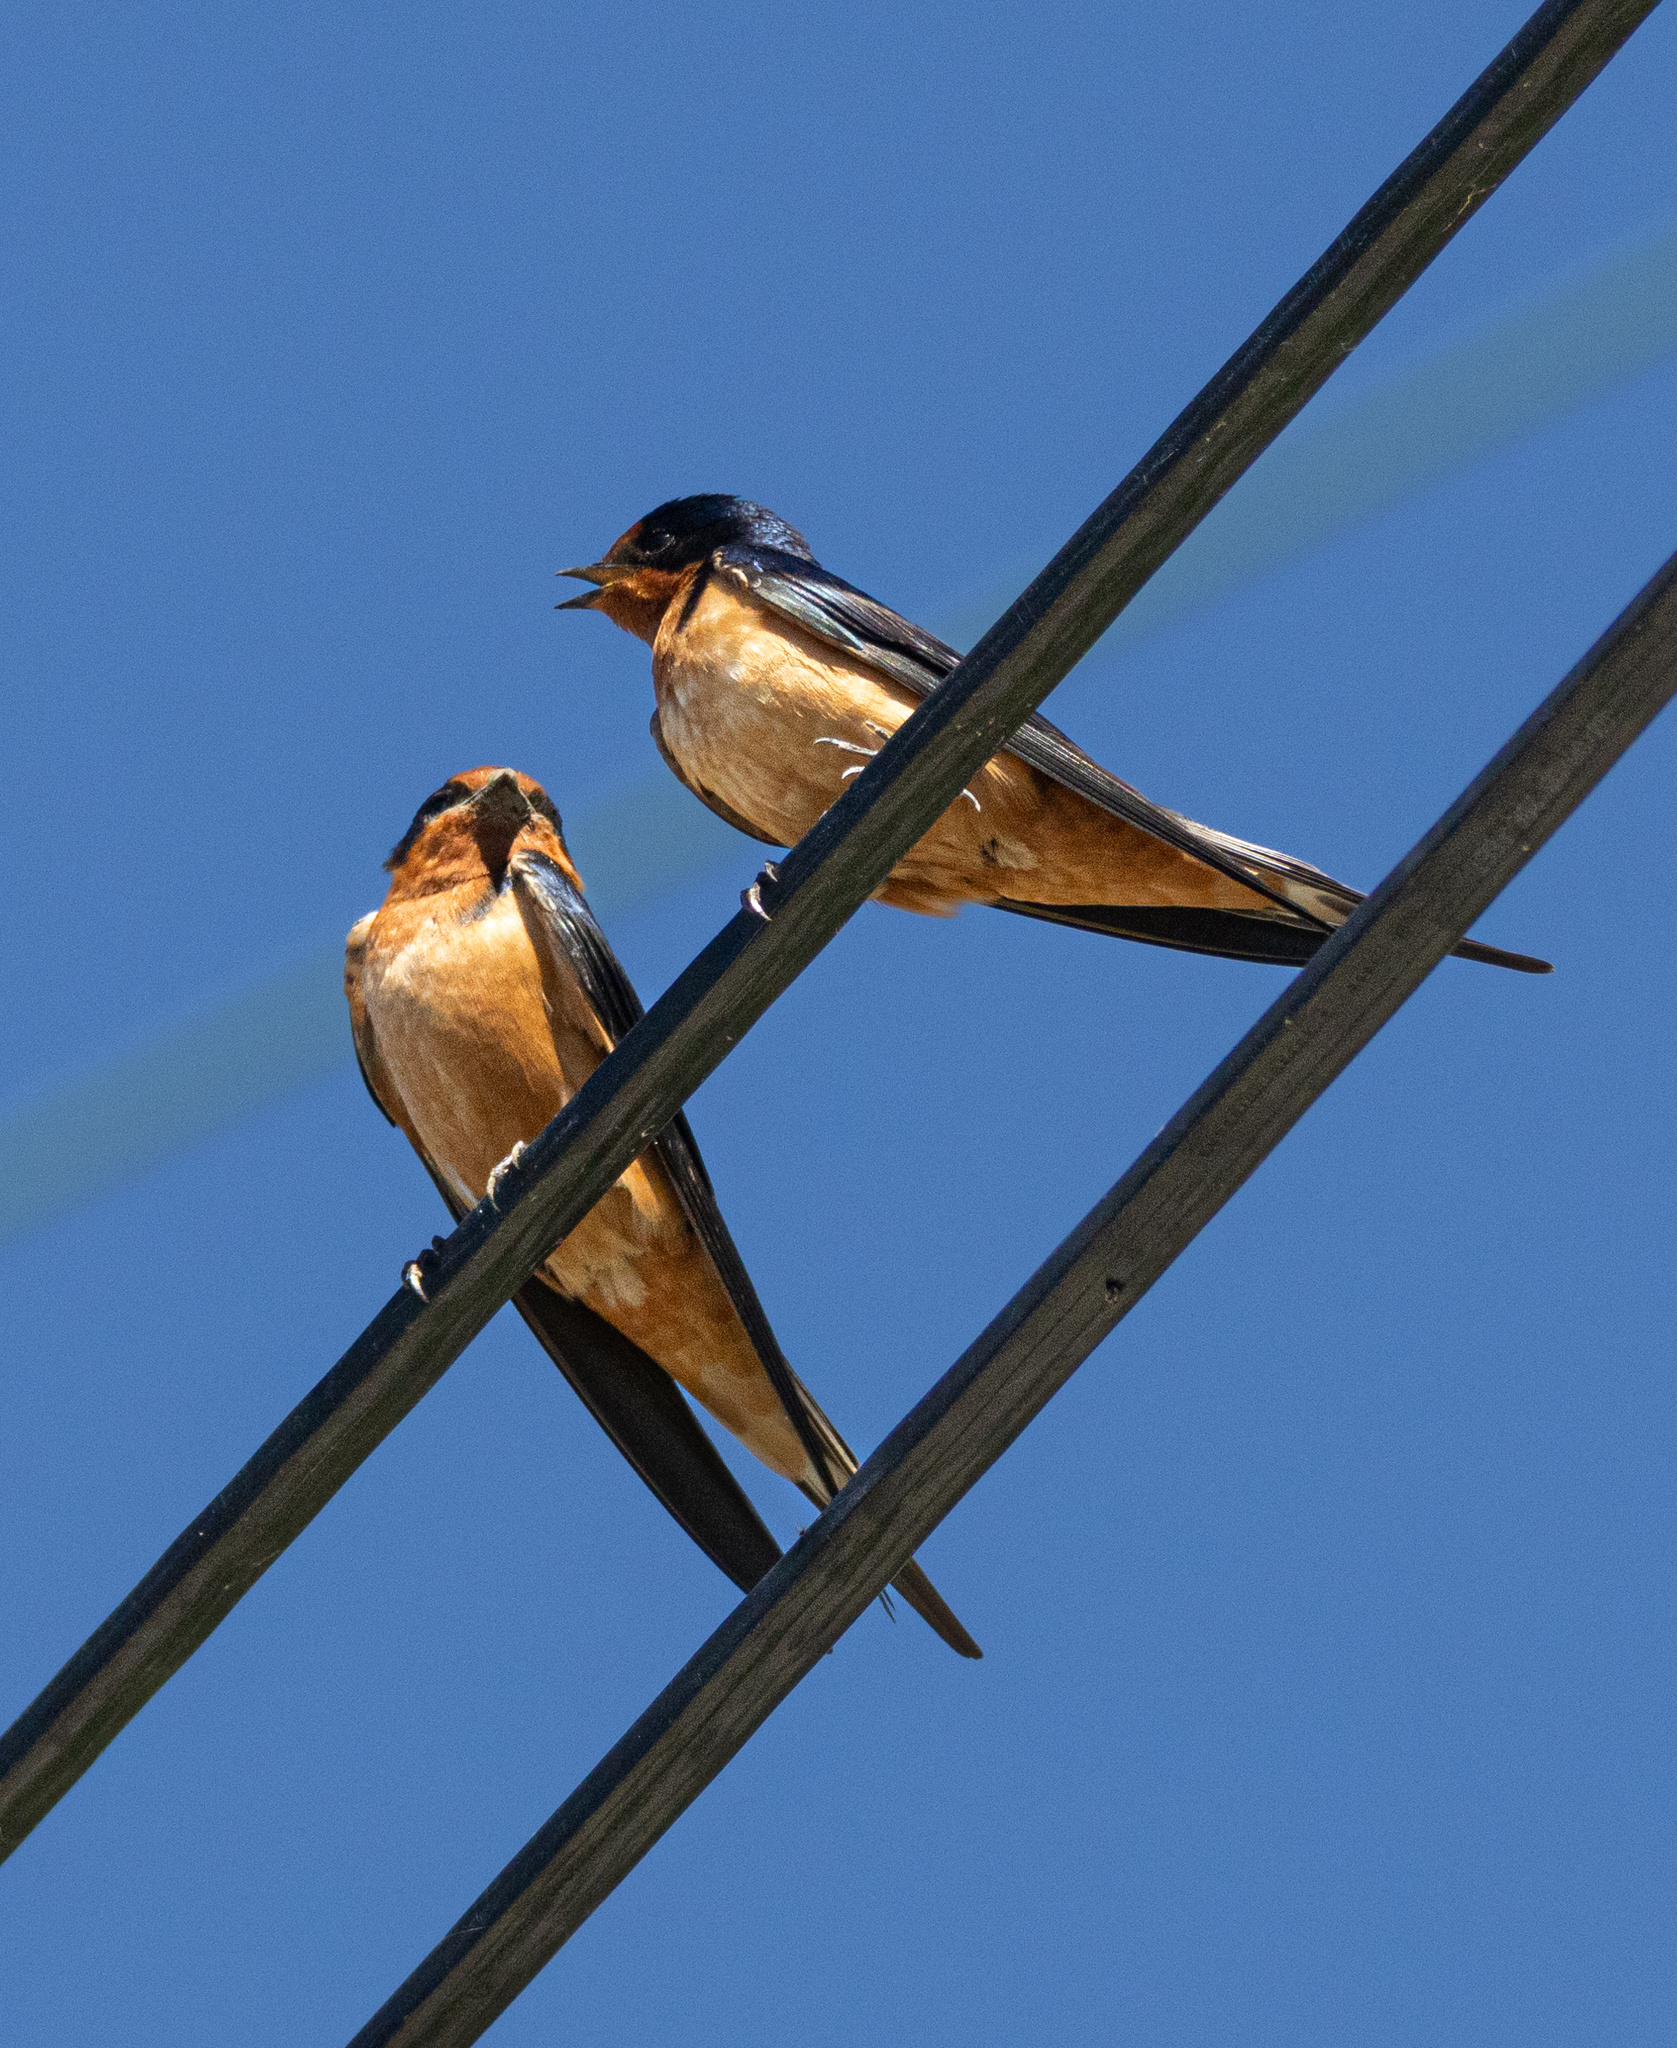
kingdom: Animalia
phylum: Chordata
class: Aves
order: Passeriformes
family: Hirundinidae
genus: Hirundo
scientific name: Hirundo rustica
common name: Barn swallow
